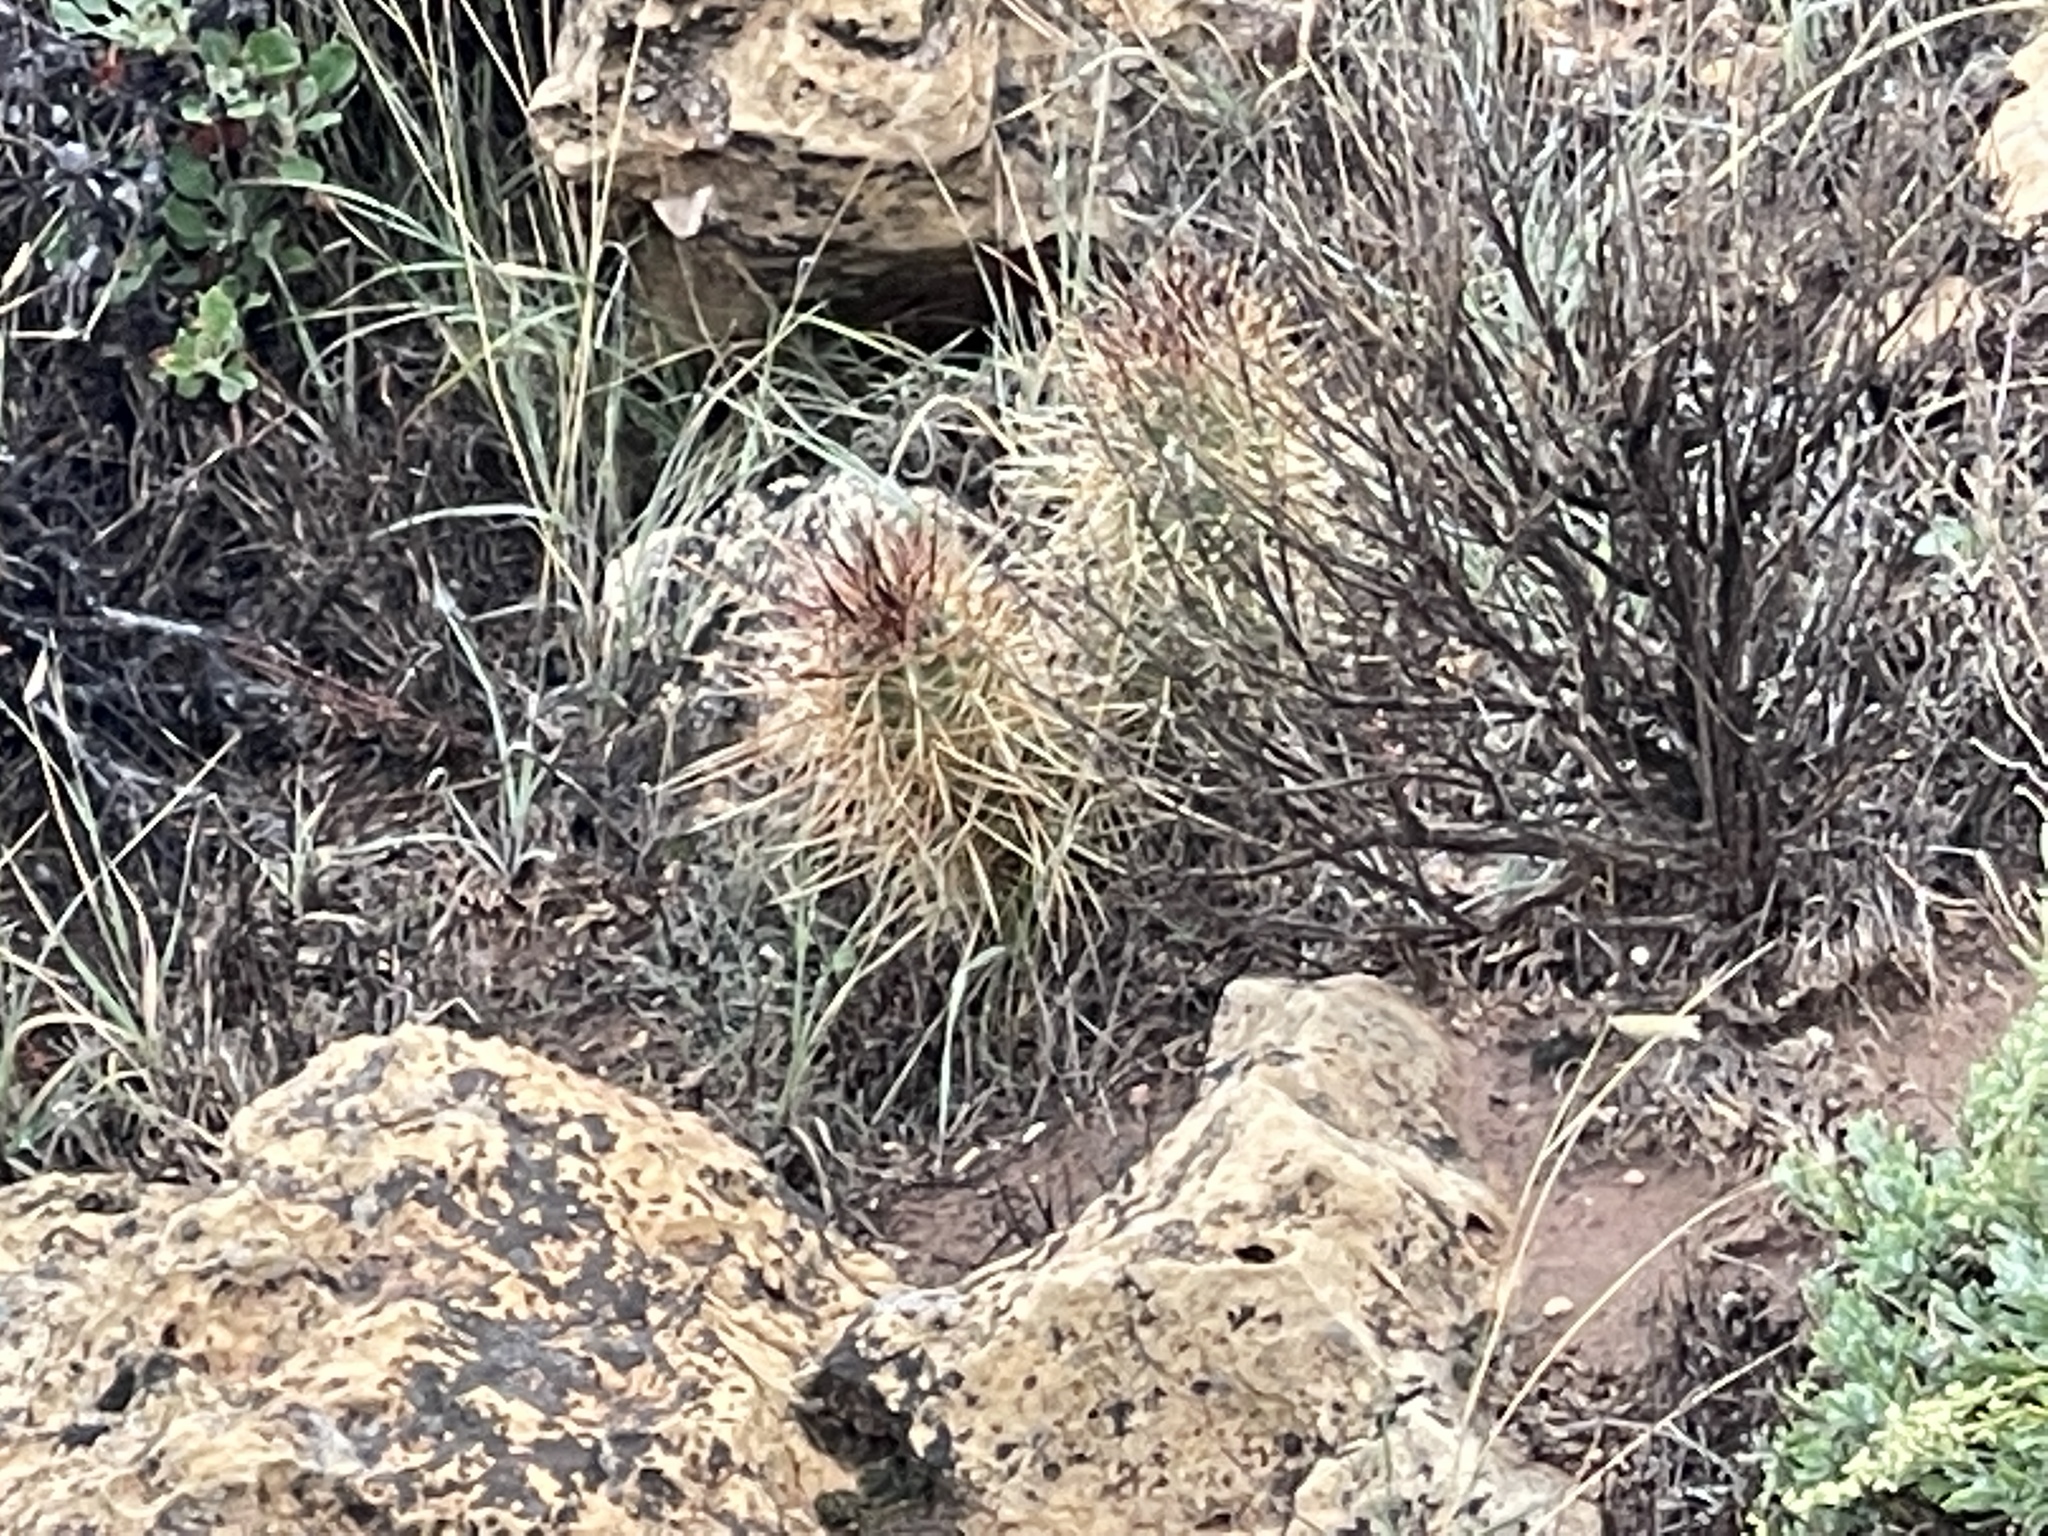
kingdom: Plantae
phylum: Tracheophyta
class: Magnoliopsida
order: Caryophyllales
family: Cactaceae
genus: Echinocereus
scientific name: Echinocereus triglochidiatus
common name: Claretcup hedgehog
